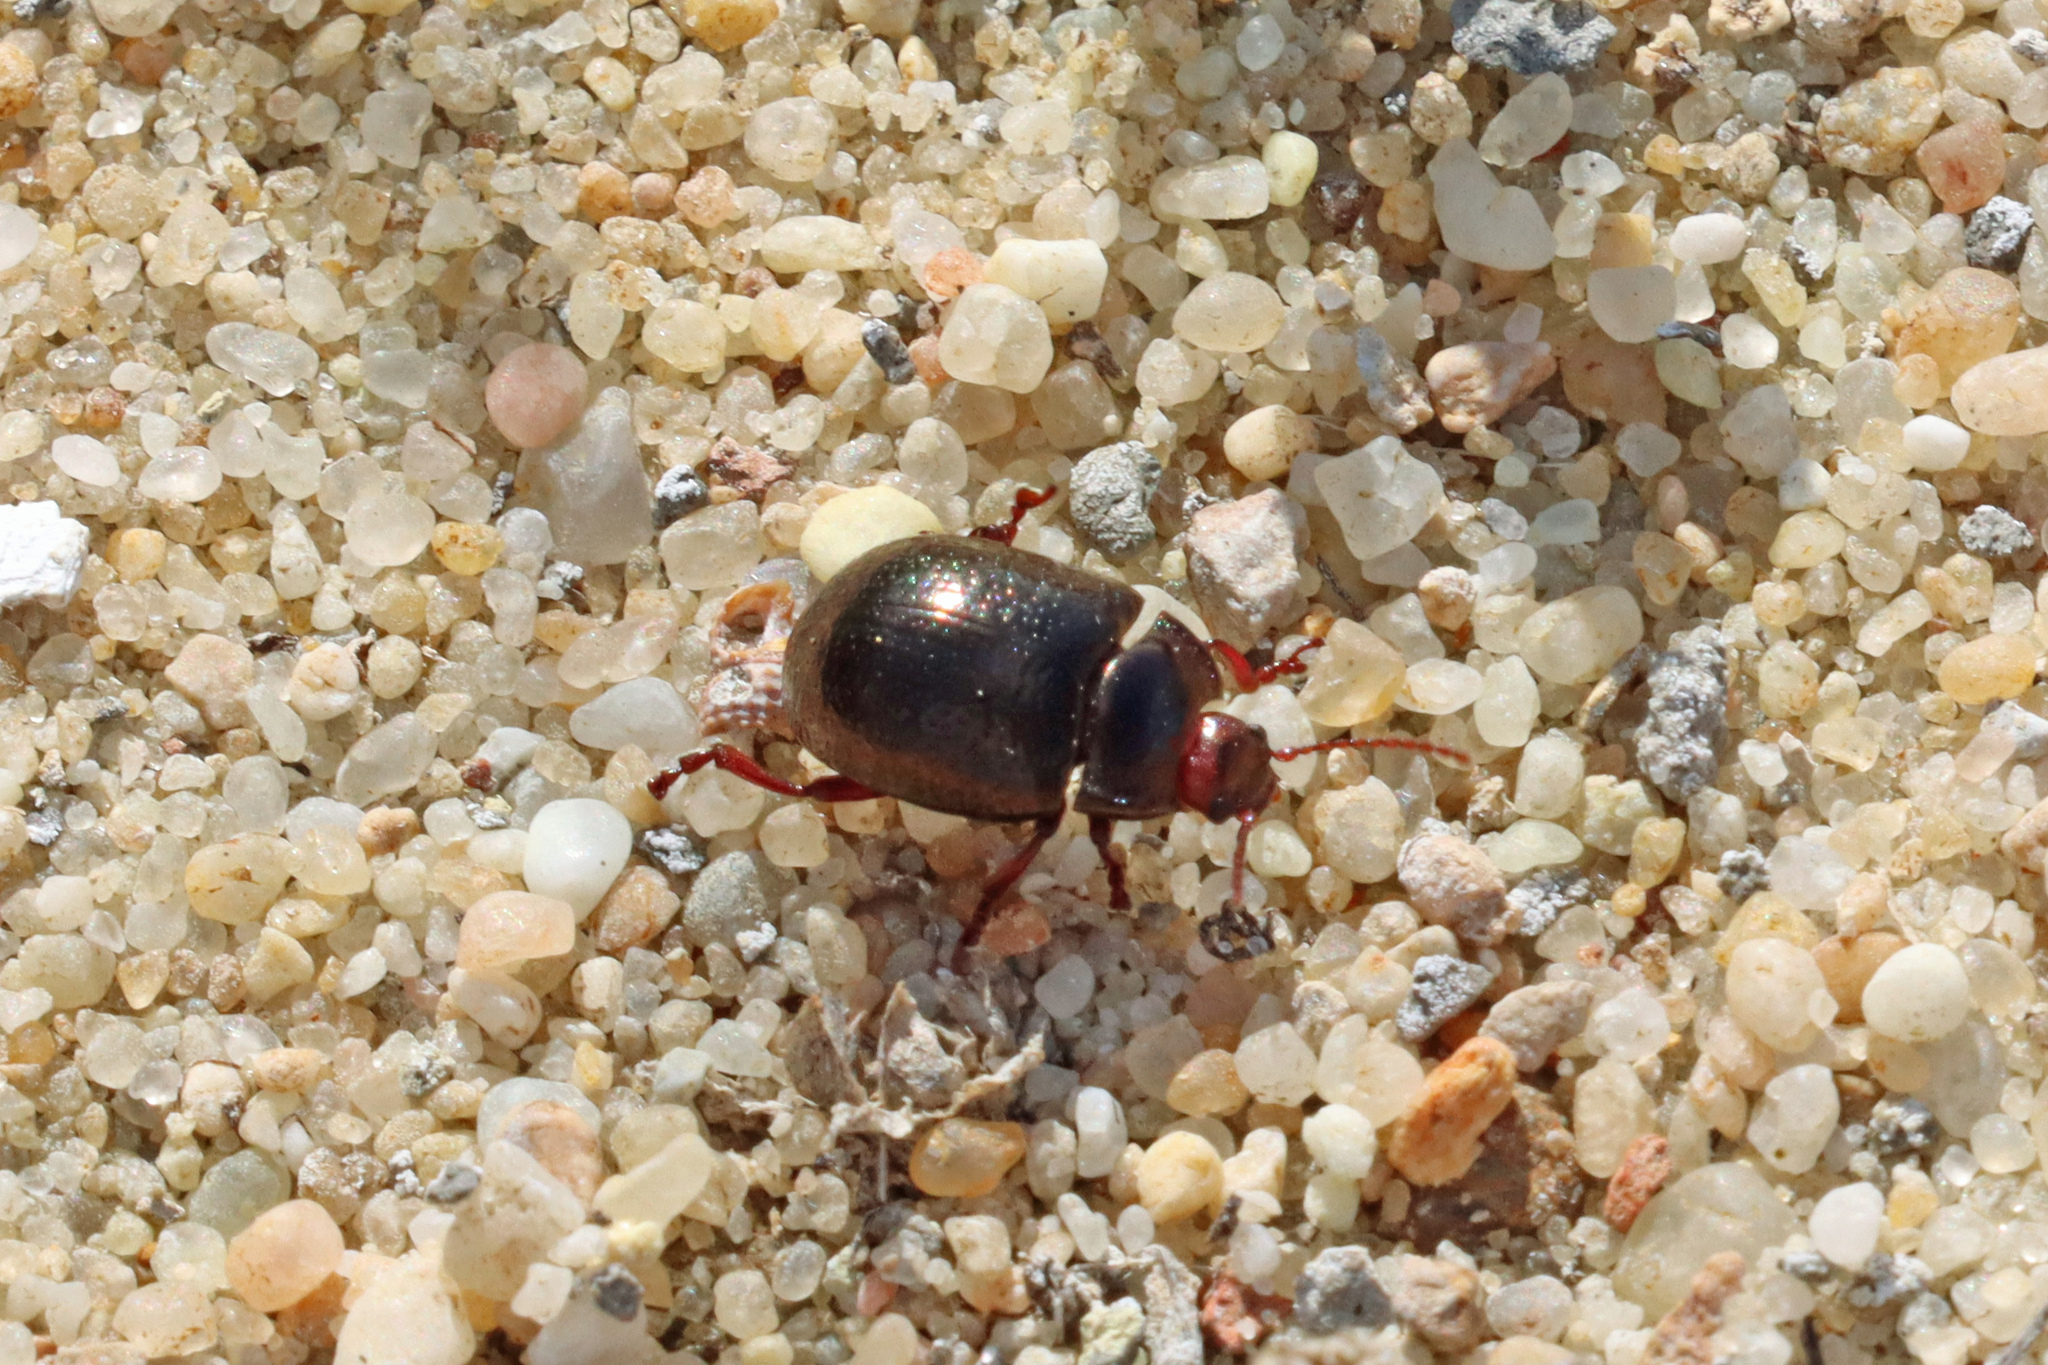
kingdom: Animalia
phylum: Arthropoda
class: Insecta
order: Coleoptera
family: Chrysomelidae
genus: Chrysolina
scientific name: Chrysolina bankii
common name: Leaf beetle
